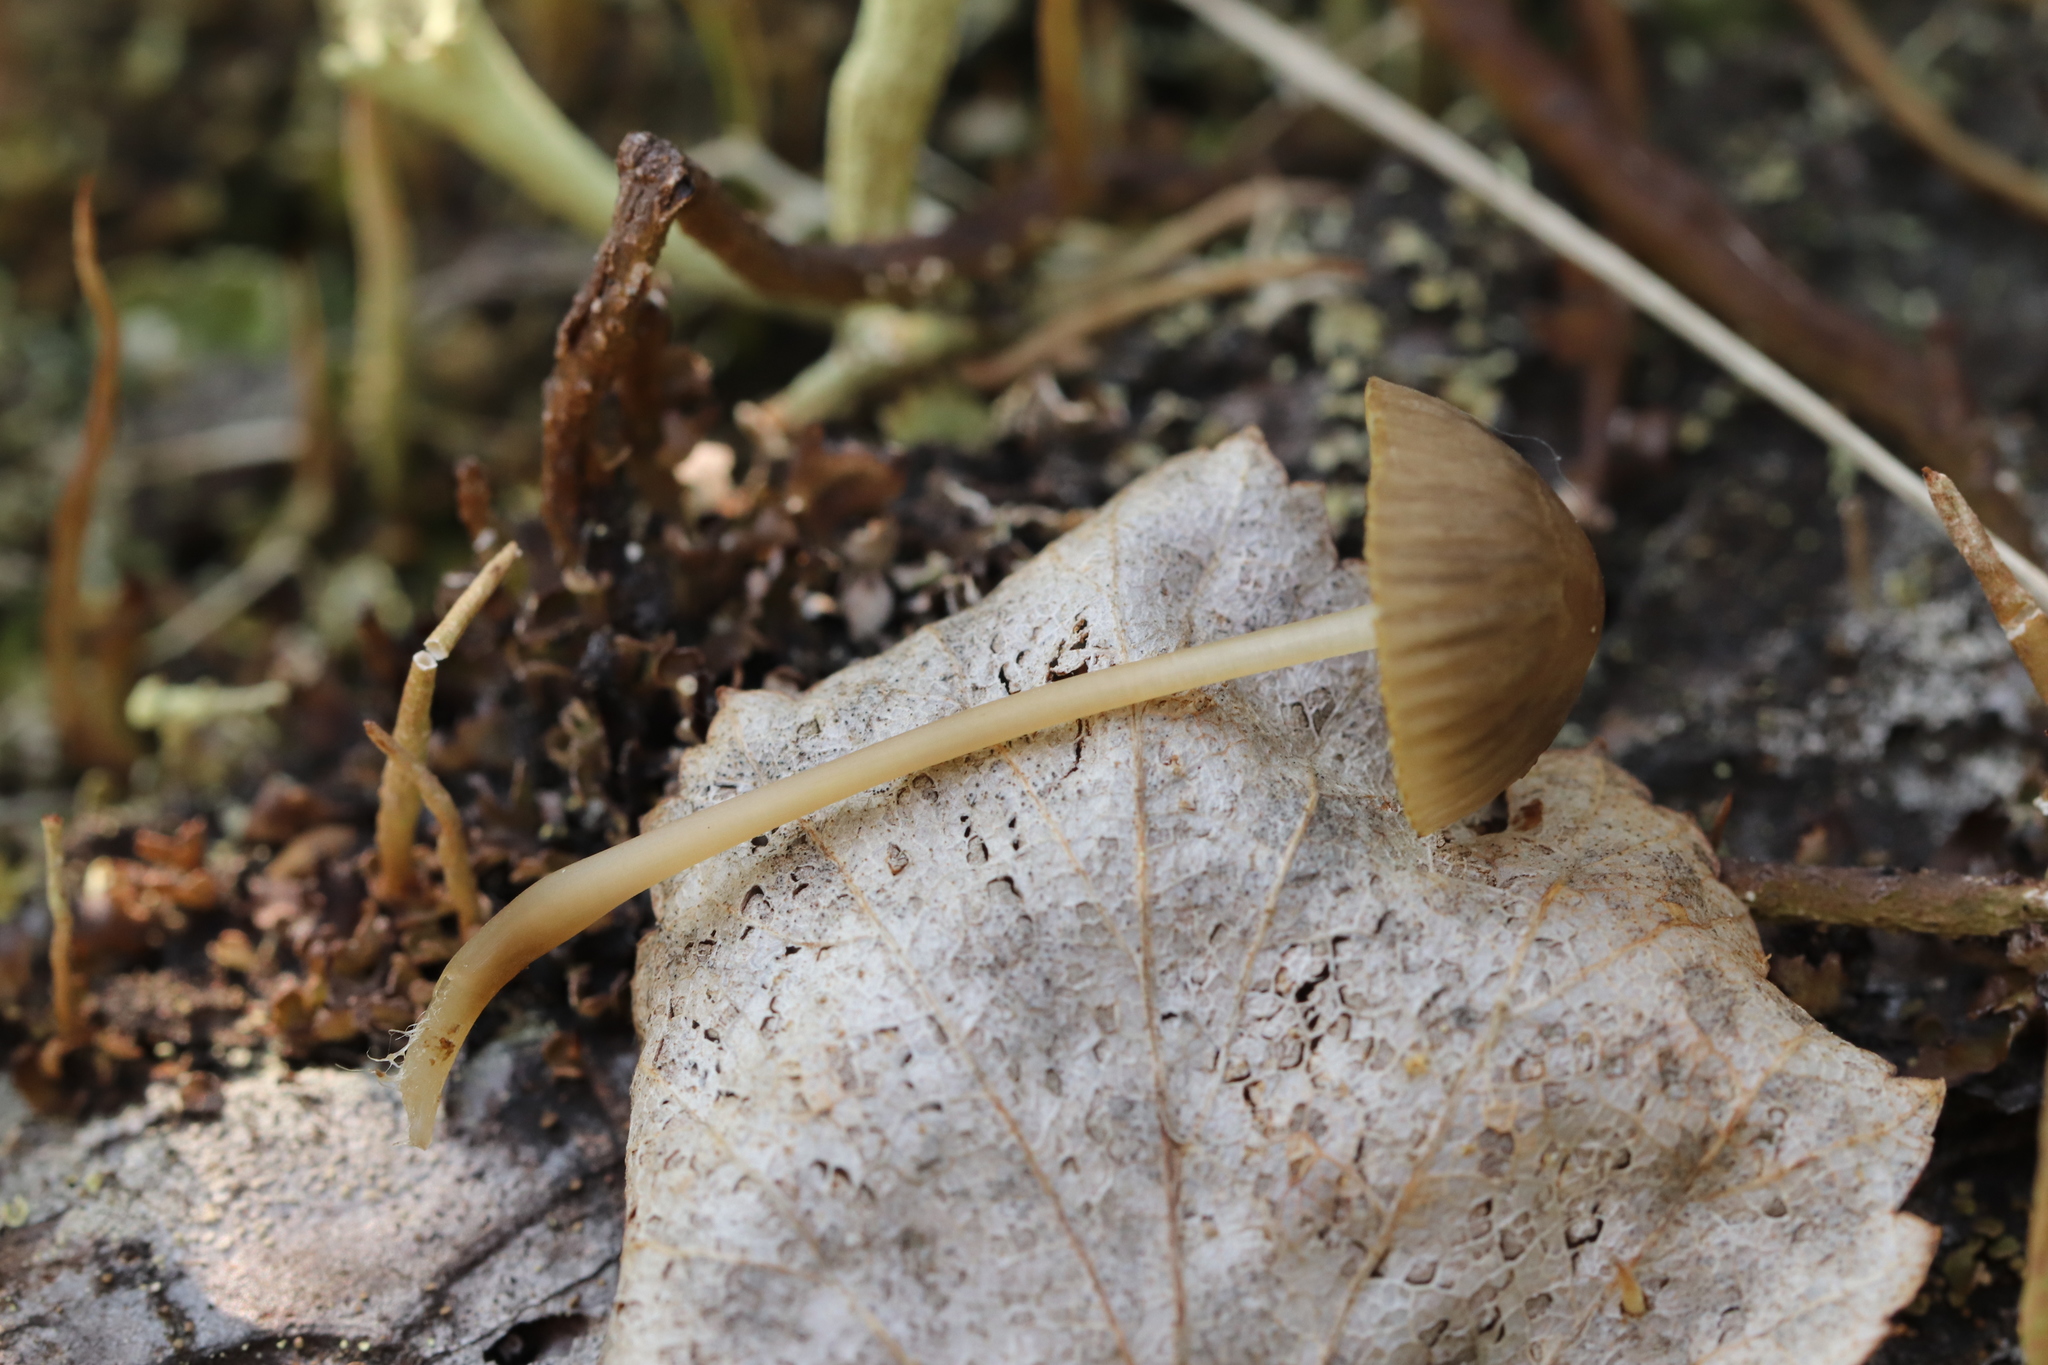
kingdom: Fungi
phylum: Basidiomycota
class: Agaricomycetes
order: Agaricales
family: Mycenaceae
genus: Mycena
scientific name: Mycena viridimarginata
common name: Olive edge bonnet
